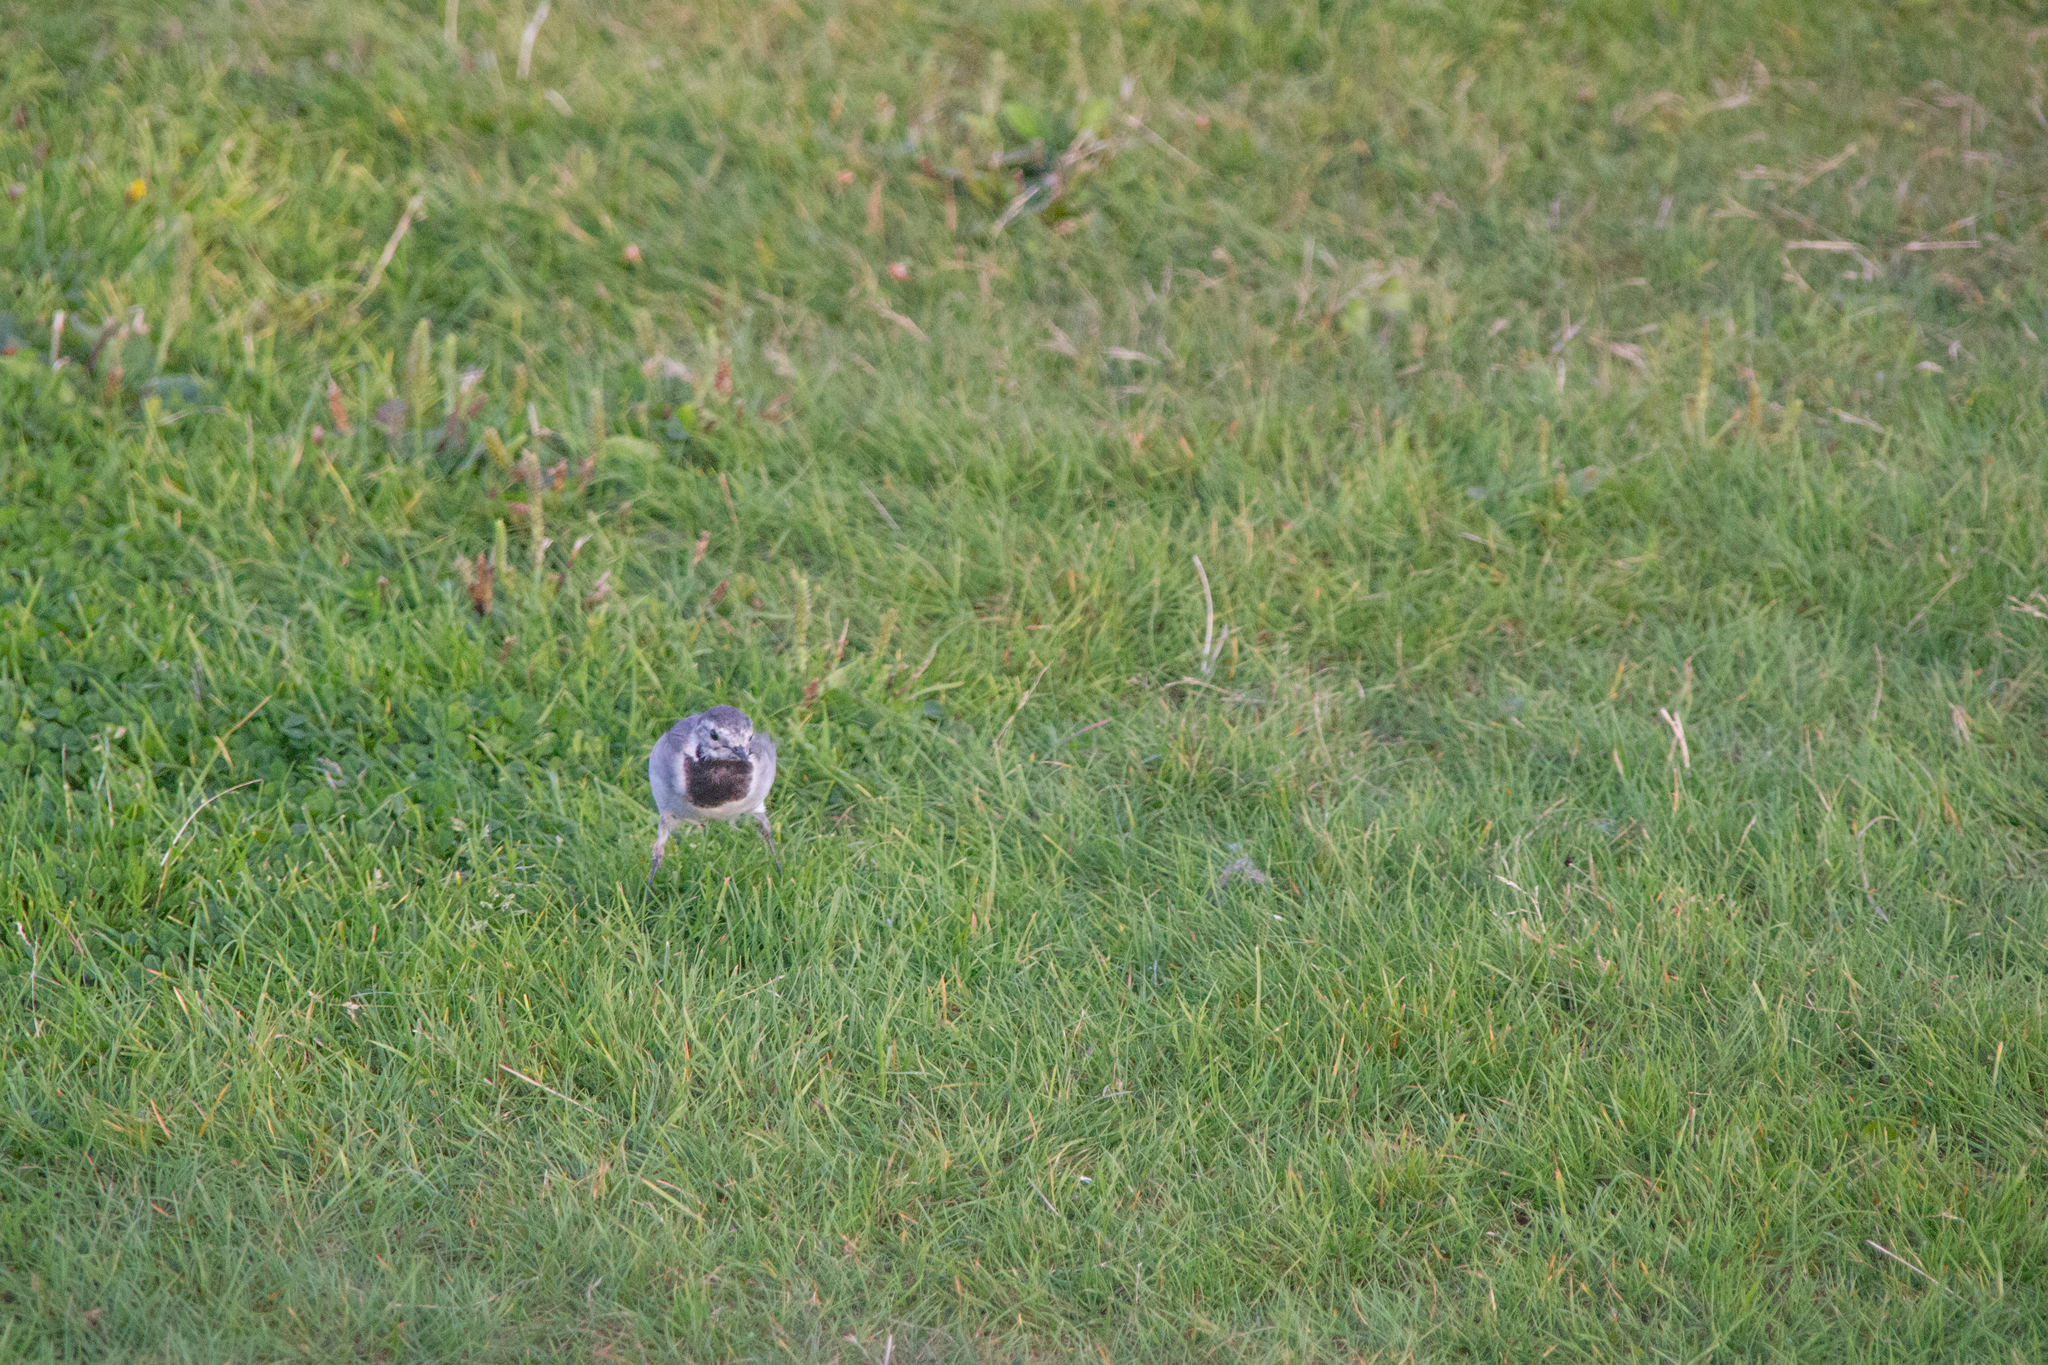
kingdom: Animalia
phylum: Chordata
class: Aves
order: Passeriformes
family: Motacillidae
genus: Motacilla
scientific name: Motacilla alba
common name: White wagtail
